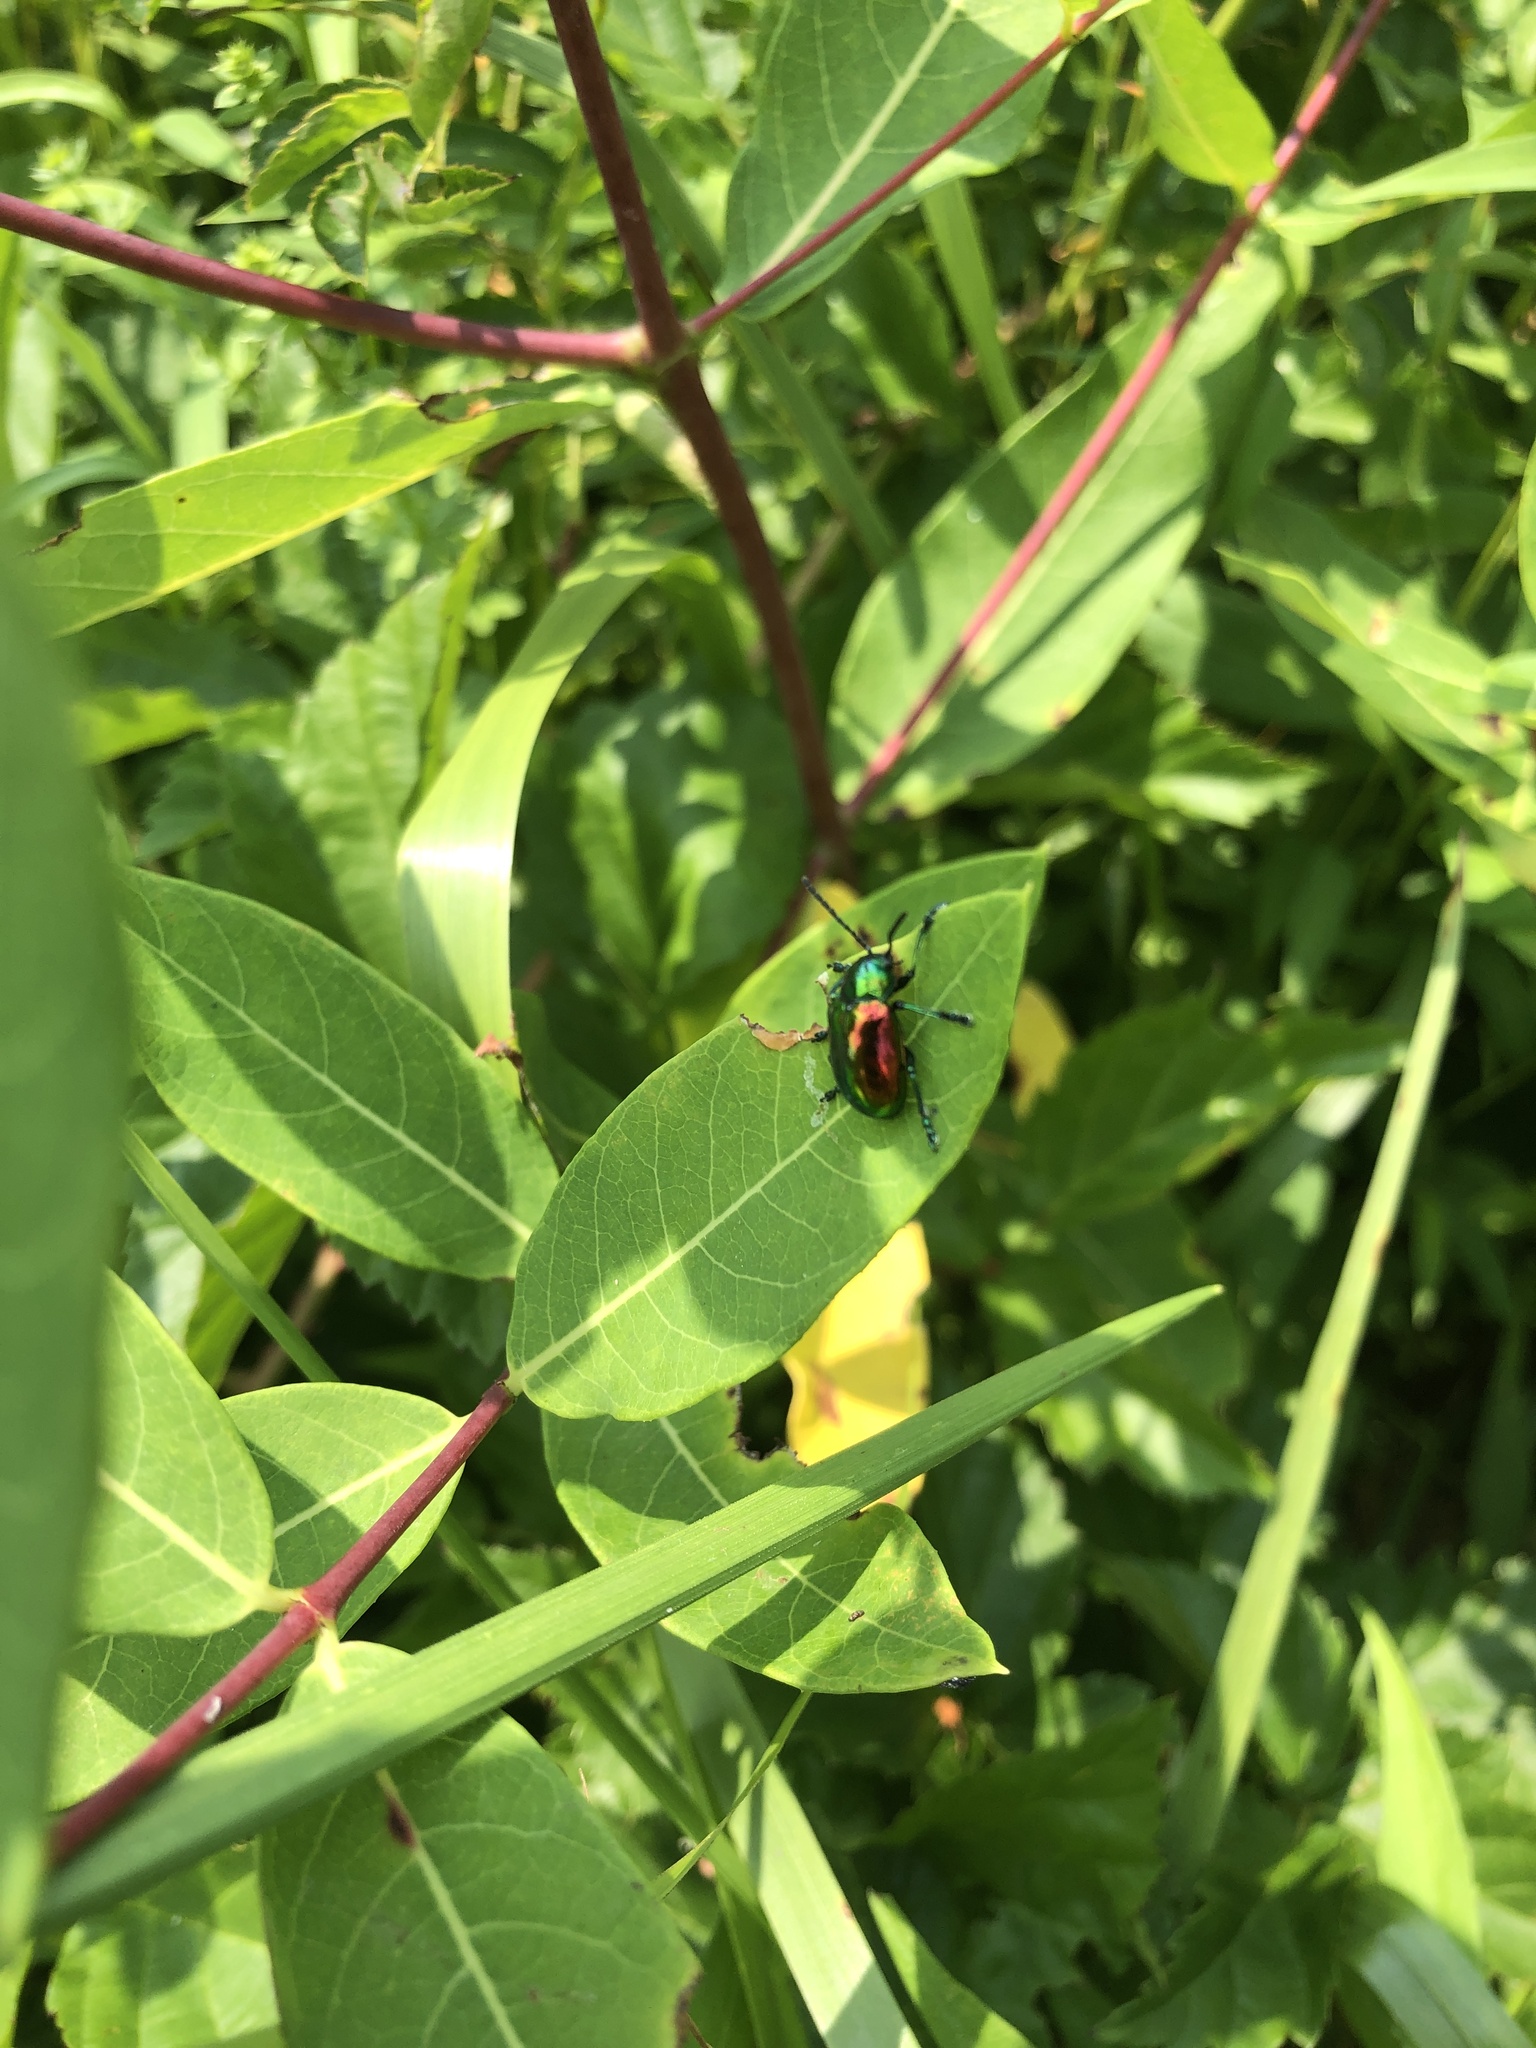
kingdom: Animalia
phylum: Arthropoda
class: Insecta
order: Coleoptera
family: Chrysomelidae
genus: Chrysochus
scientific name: Chrysochus auratus
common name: Dogbane leaf beetle
